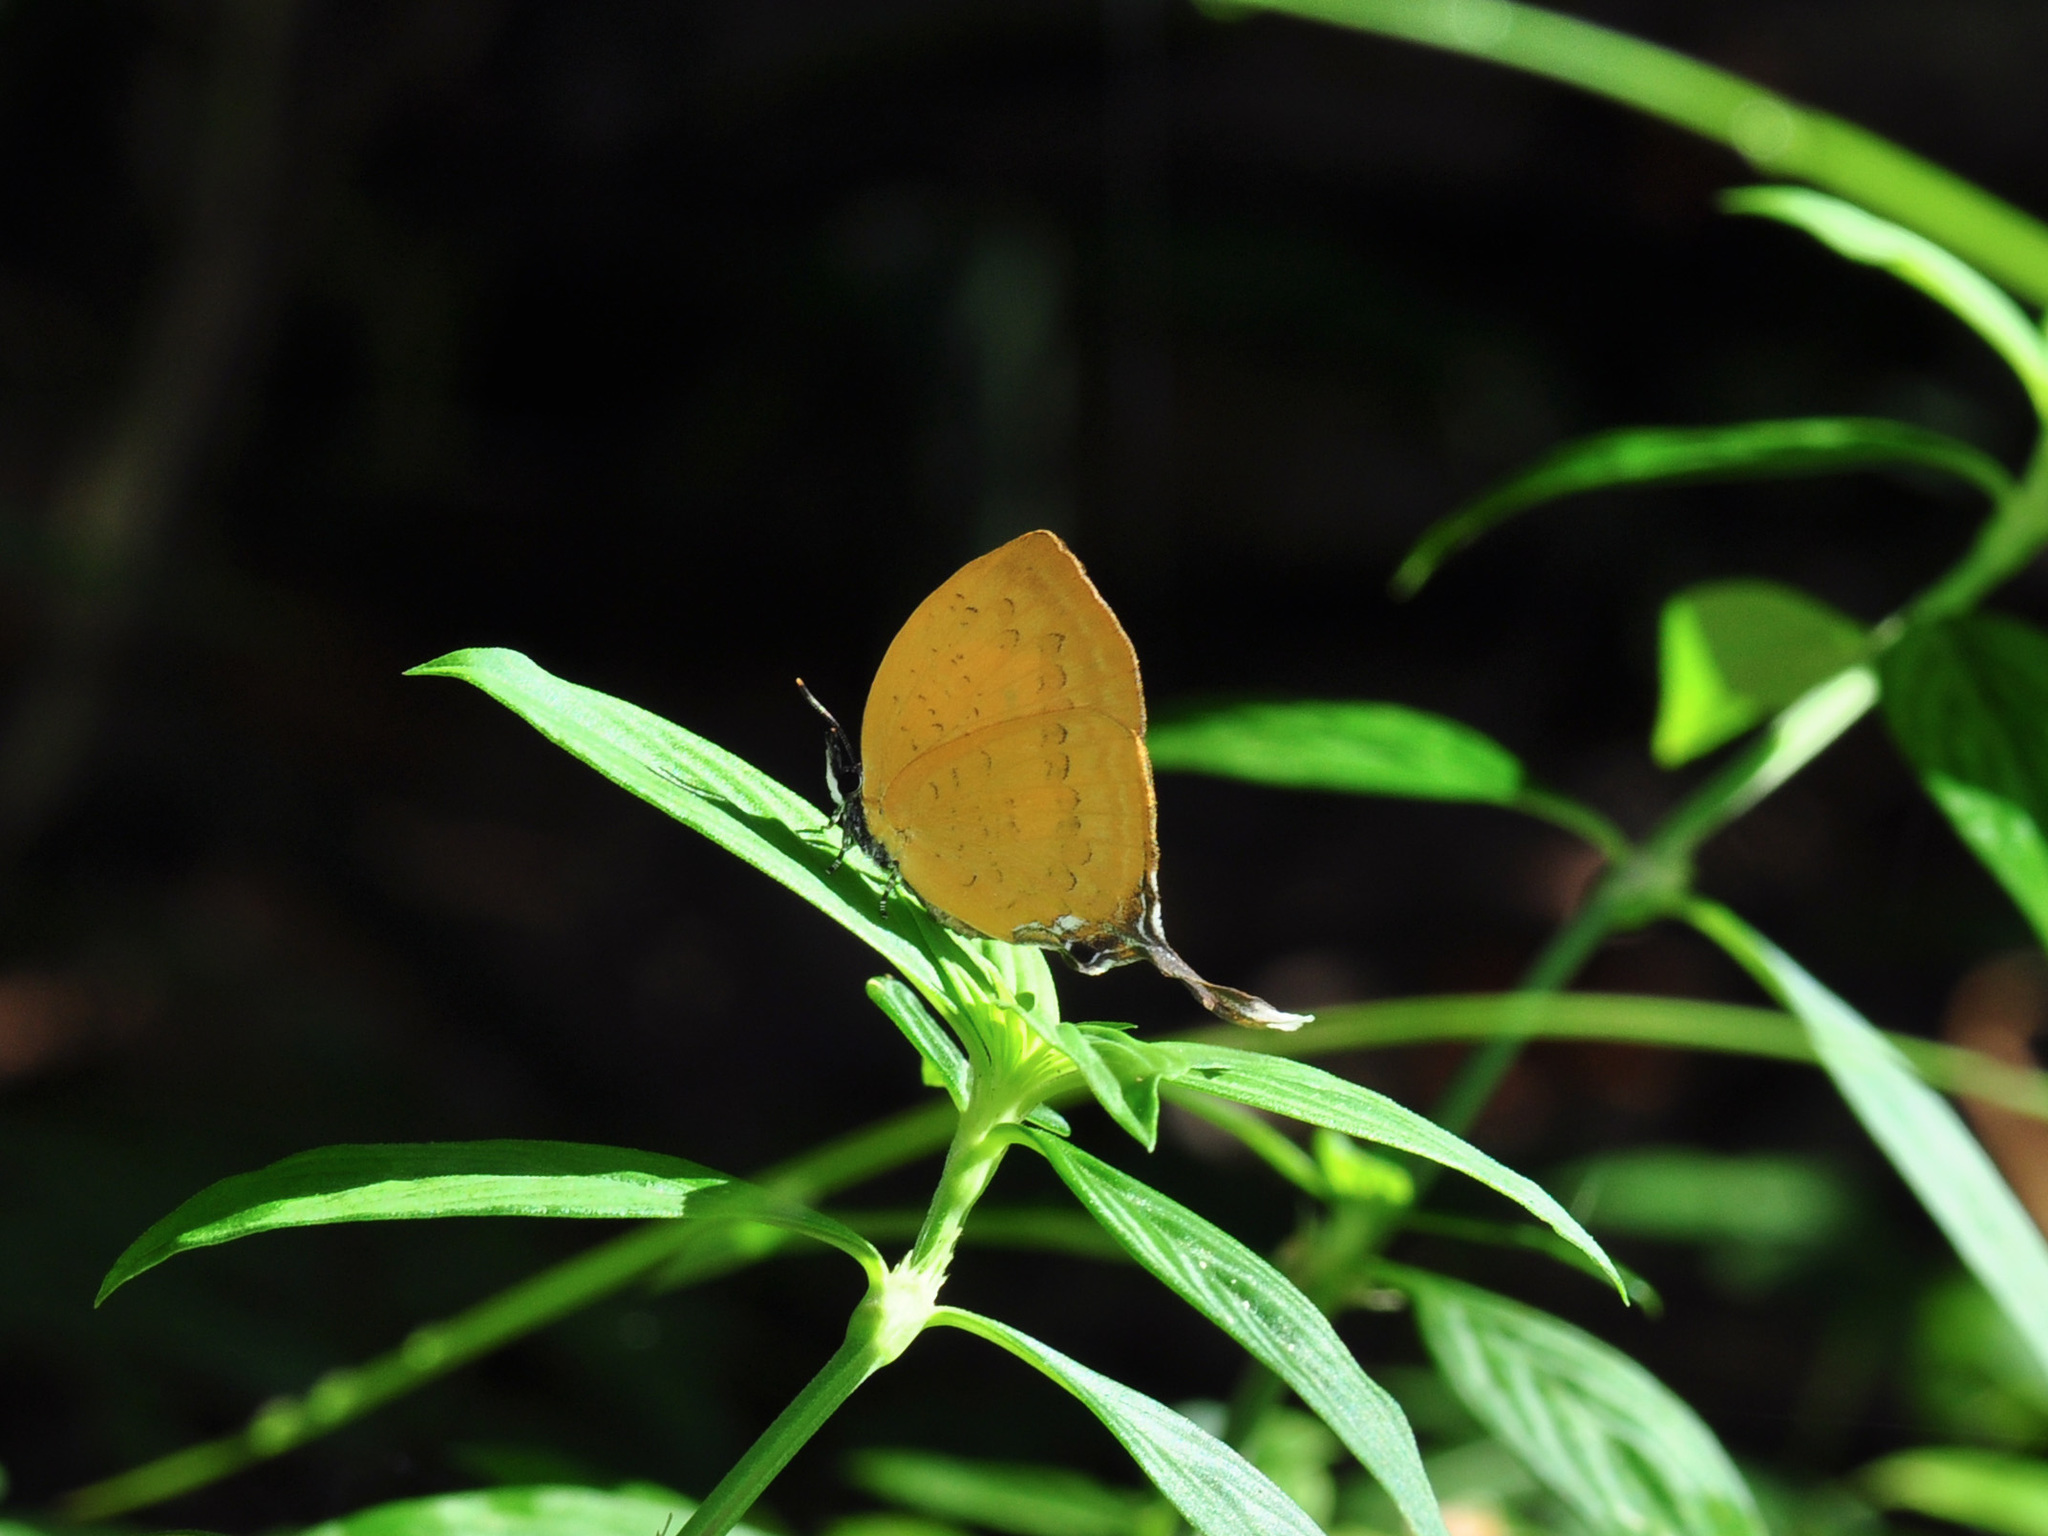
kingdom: Animalia
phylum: Arthropoda
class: Insecta
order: Lepidoptera
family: Lycaenidae
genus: Yasoda
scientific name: Yasoda pita
